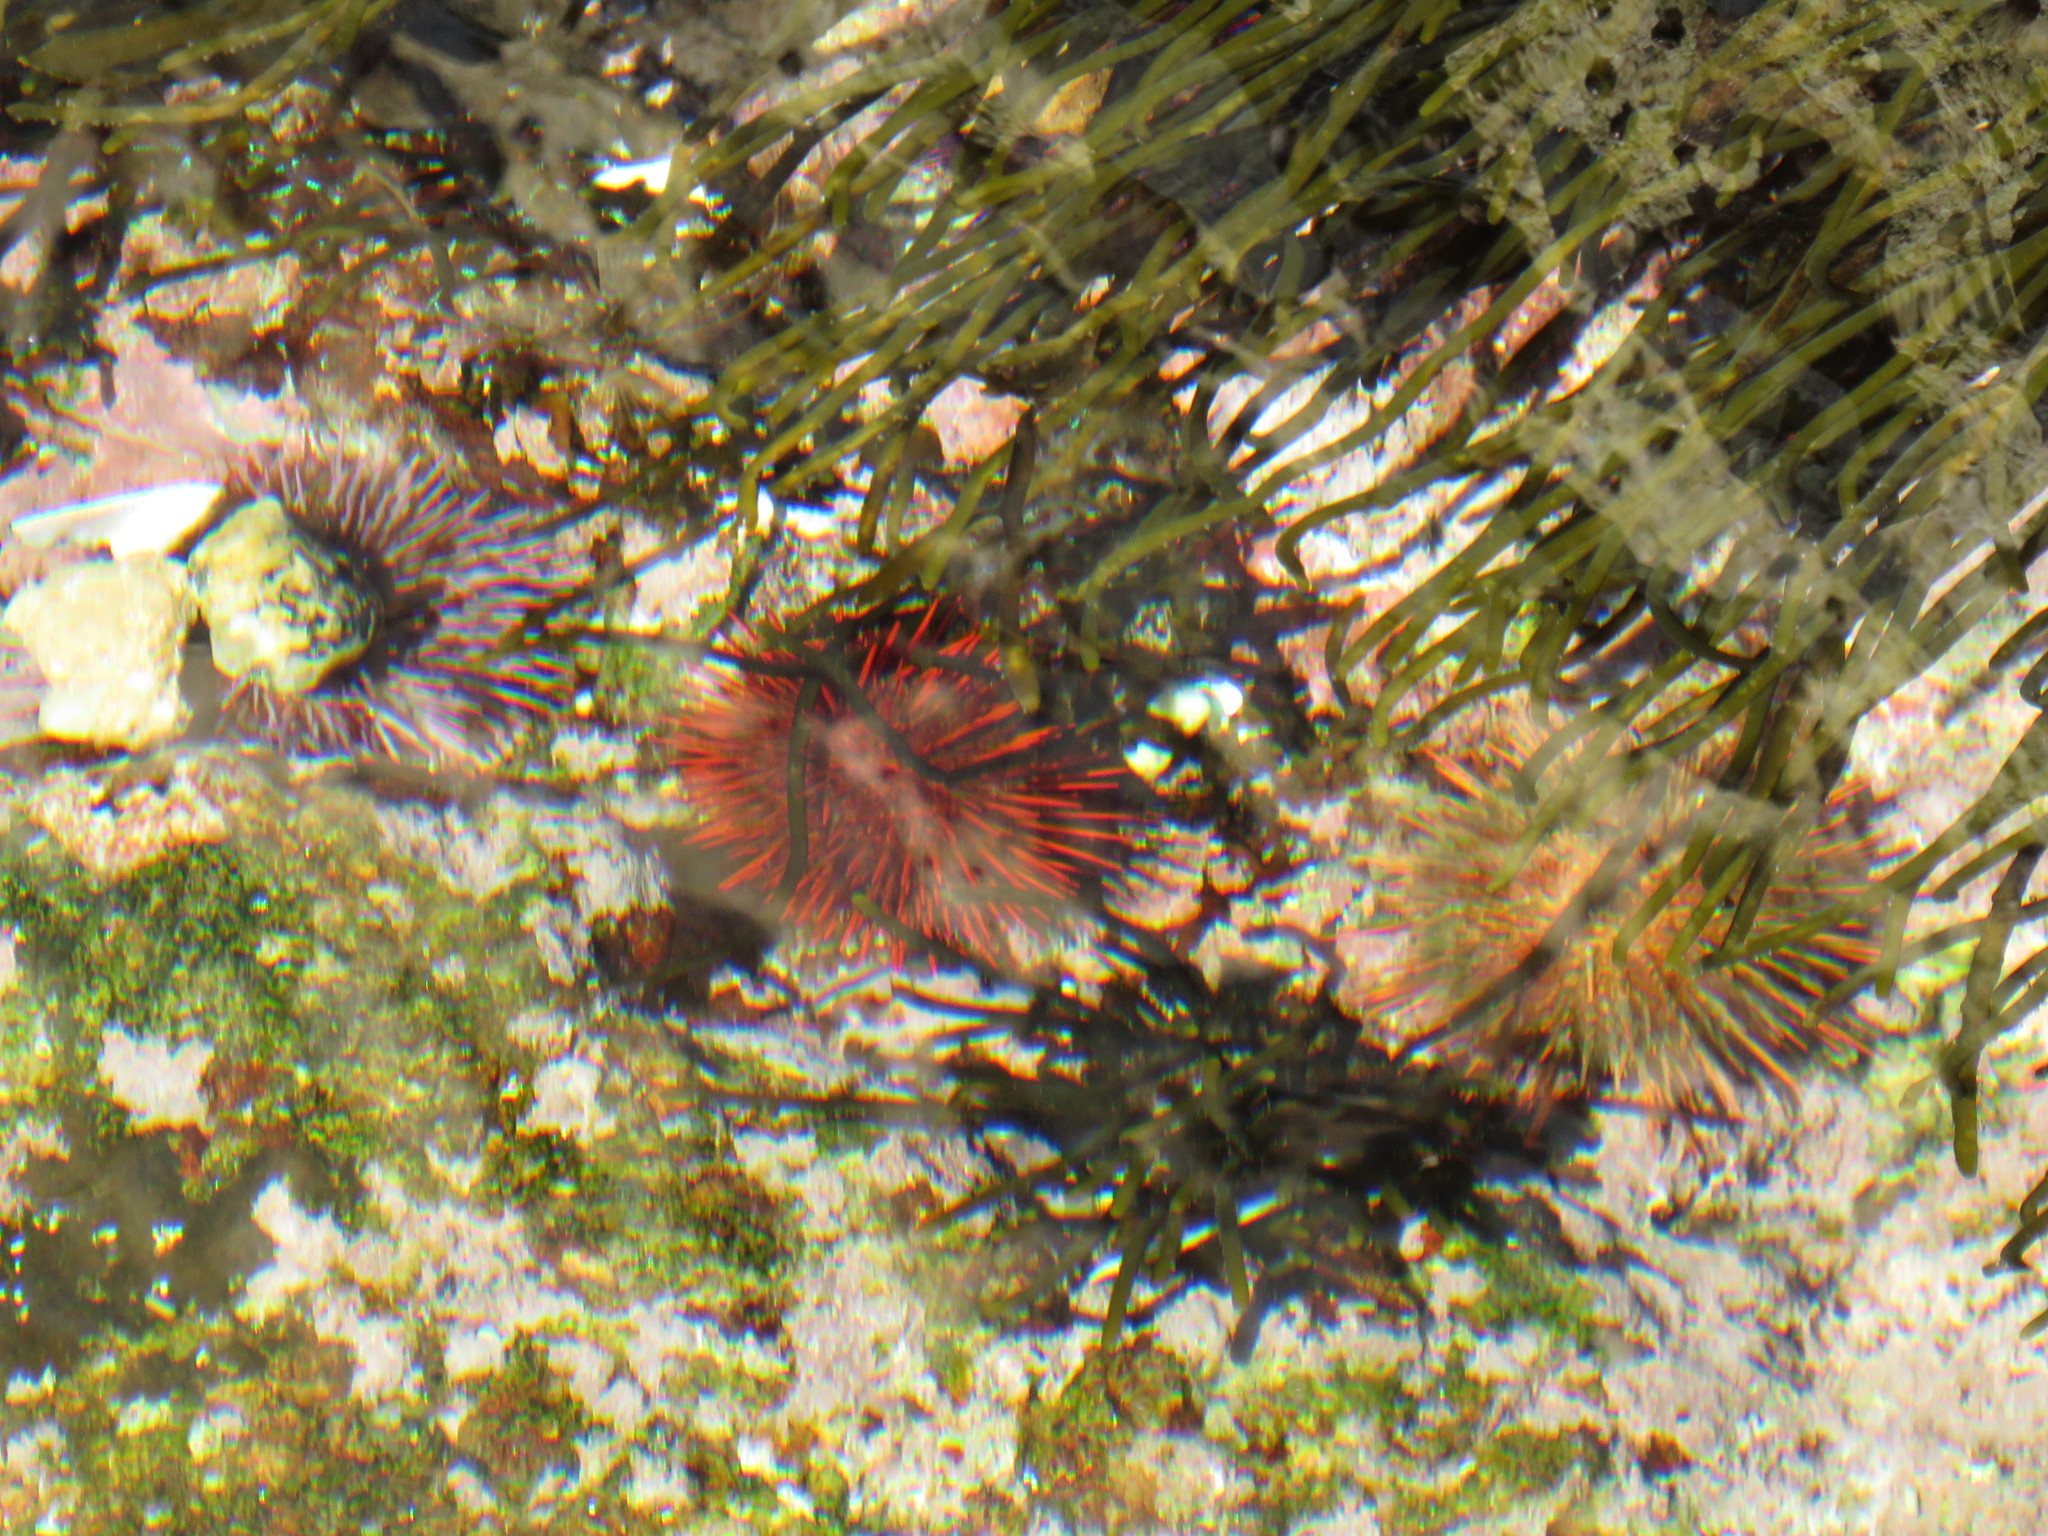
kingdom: Animalia
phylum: Echinodermata
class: Echinoidea
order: Camarodonta
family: Parechinidae
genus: Parechinus
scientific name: Parechinus angulosus
